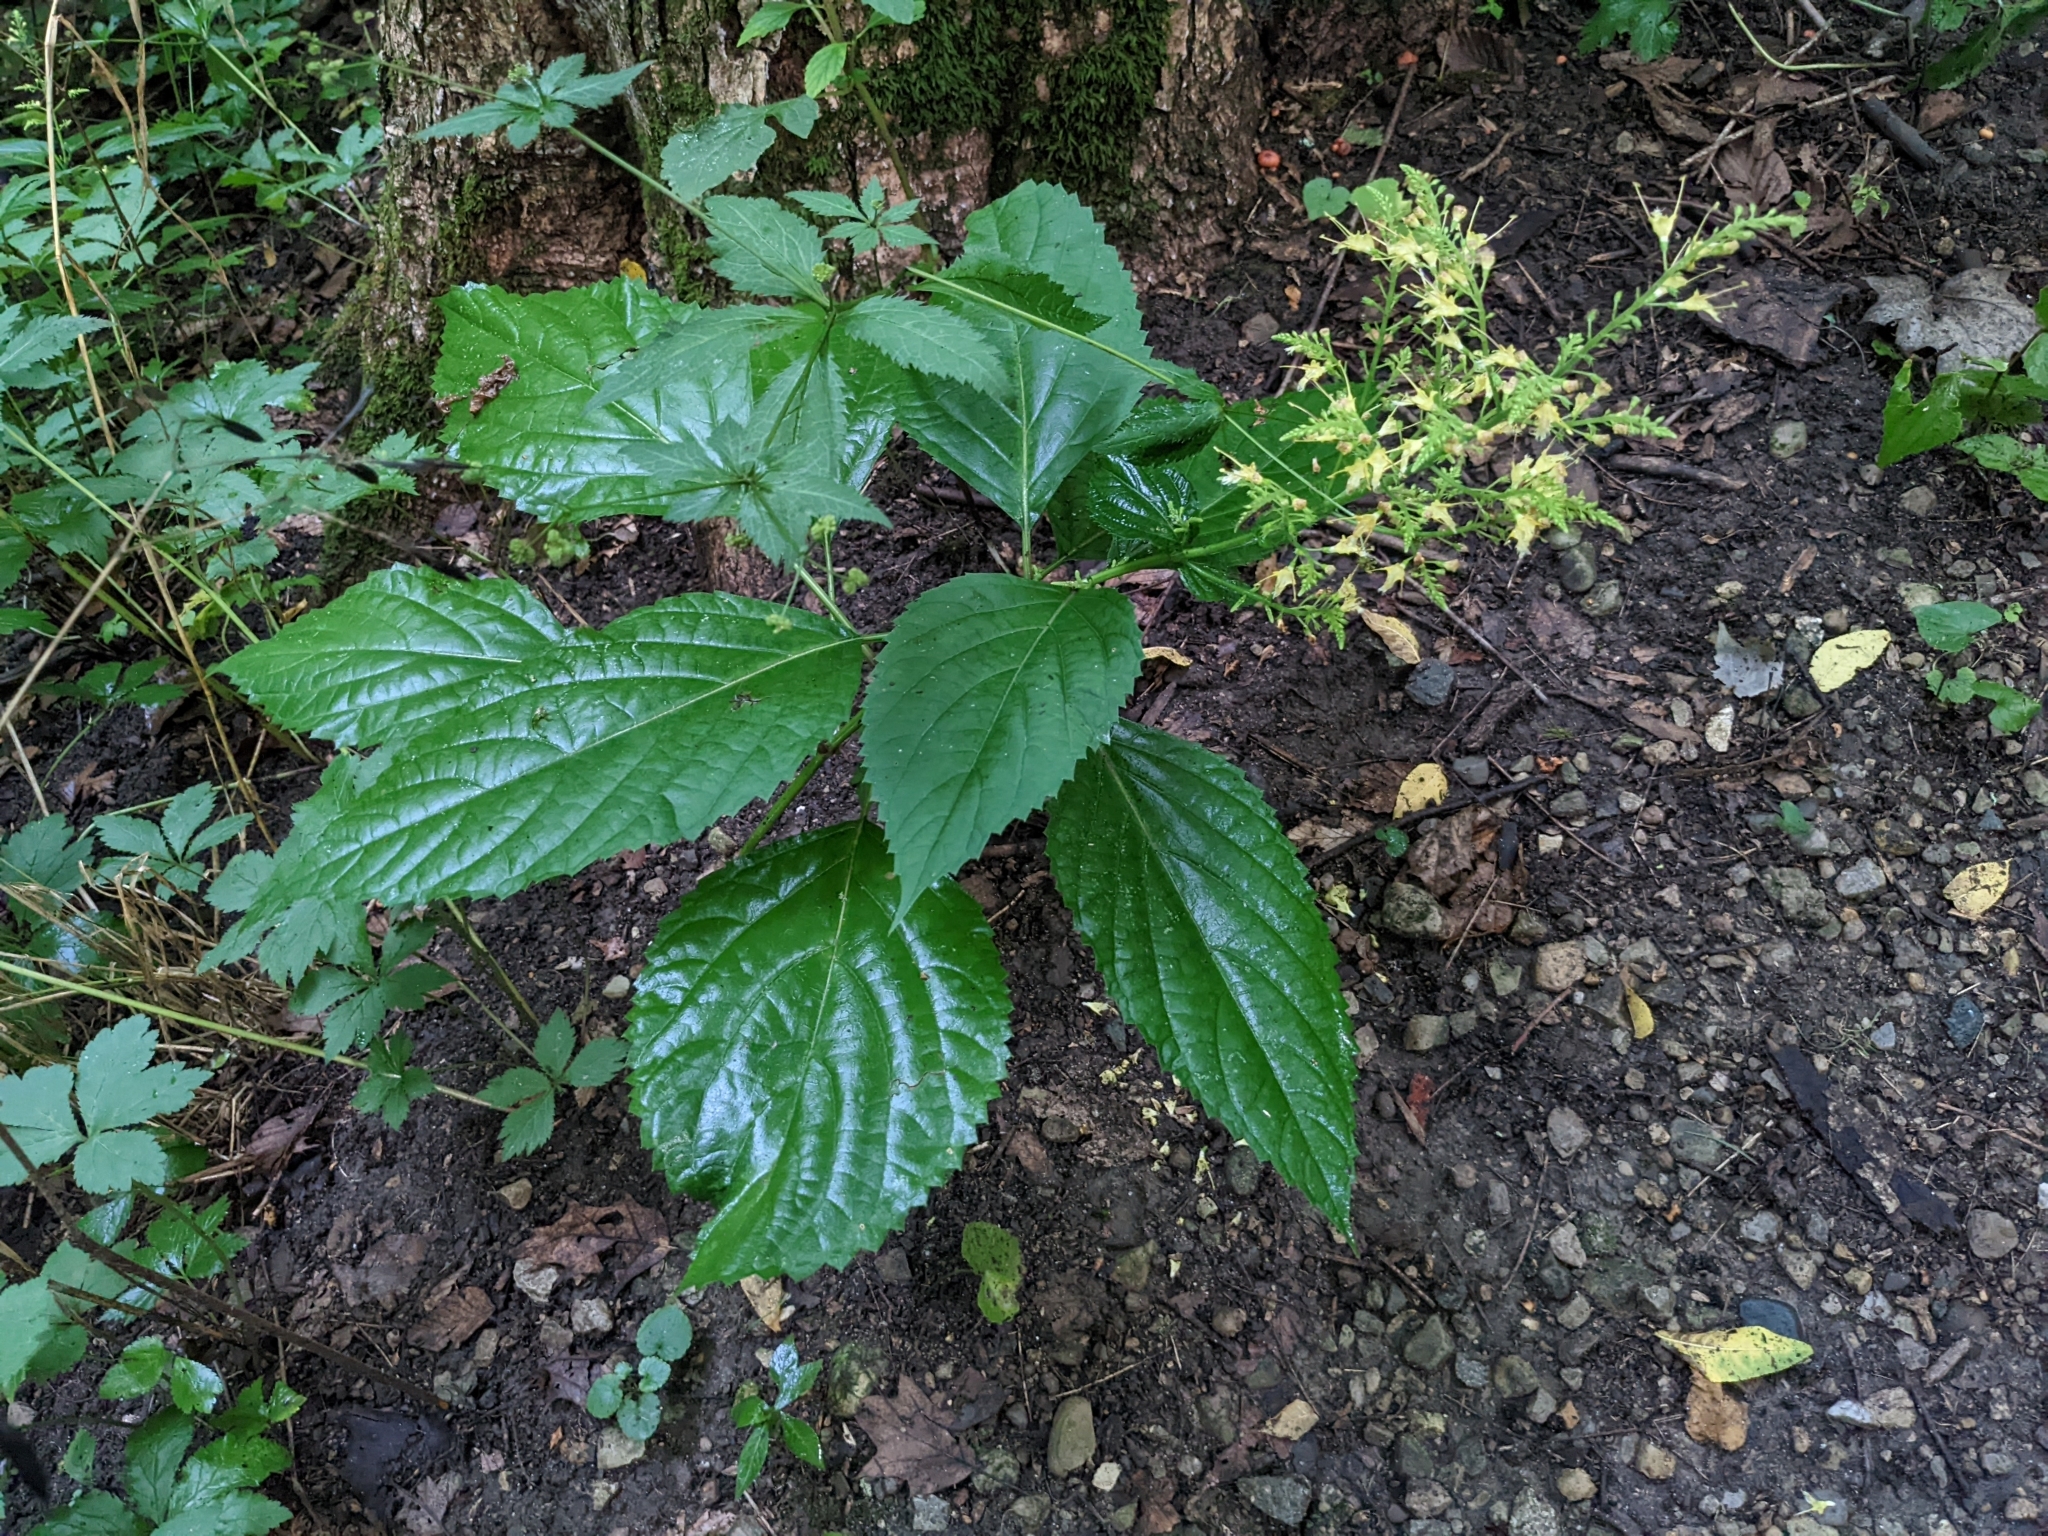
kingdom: Plantae
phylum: Tracheophyta
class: Magnoliopsida
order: Lamiales
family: Lamiaceae
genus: Collinsonia
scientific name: Collinsonia canadensis
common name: Northern horsebalm
